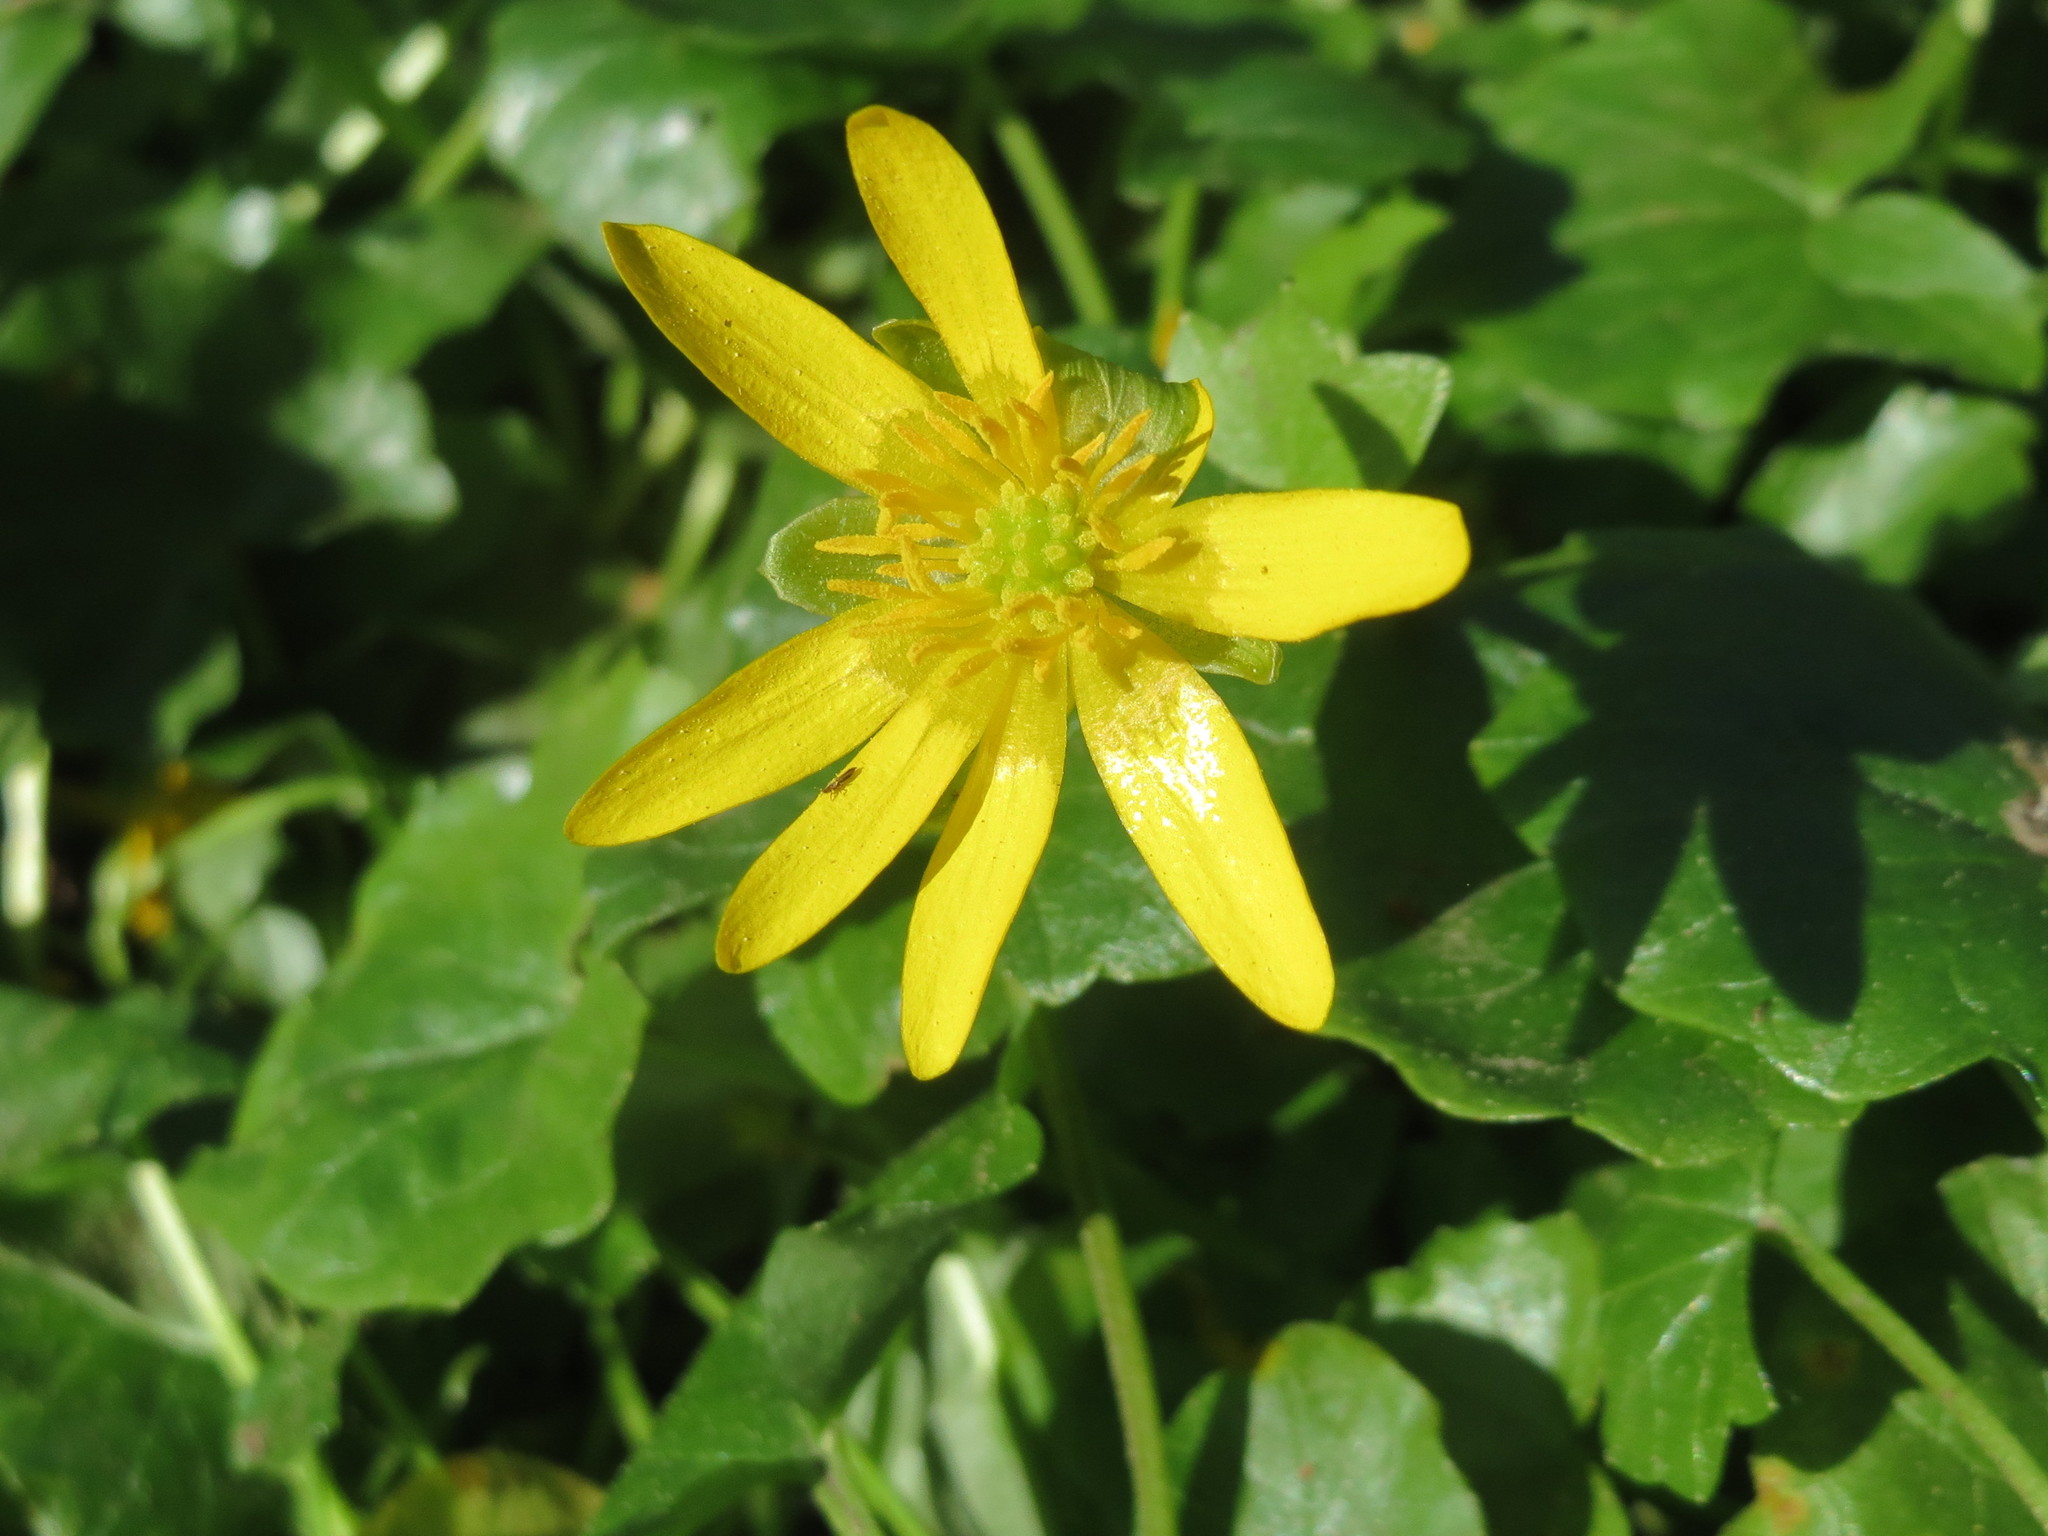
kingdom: Plantae
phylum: Tracheophyta
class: Magnoliopsida
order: Ranunculales
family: Ranunculaceae
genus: Ficaria
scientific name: Ficaria verna
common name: Lesser celandine
